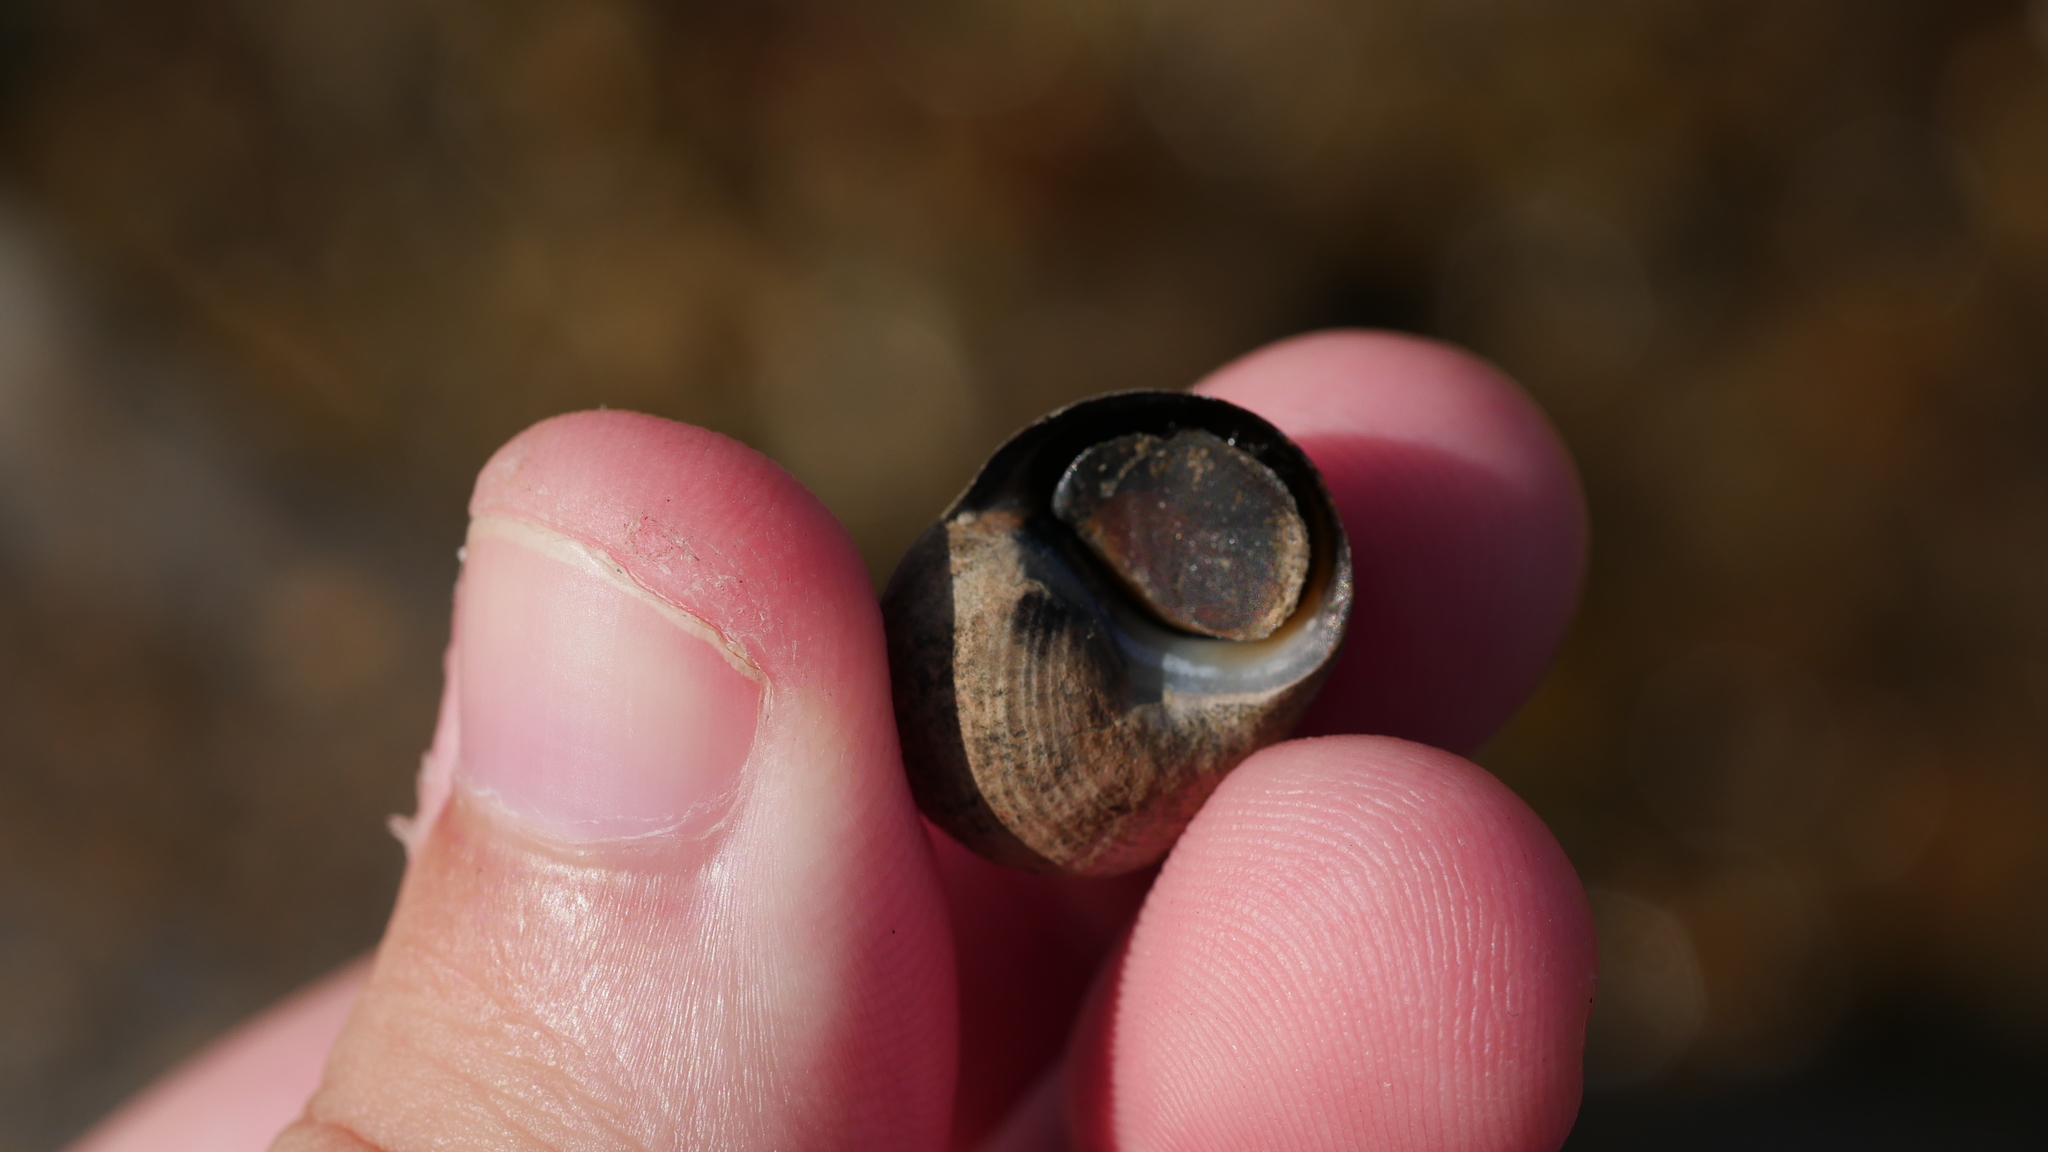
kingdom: Animalia
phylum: Mollusca
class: Gastropoda
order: Littorinimorpha
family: Littorinidae
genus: Littorina
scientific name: Littorina littorea
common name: Common periwinkle
